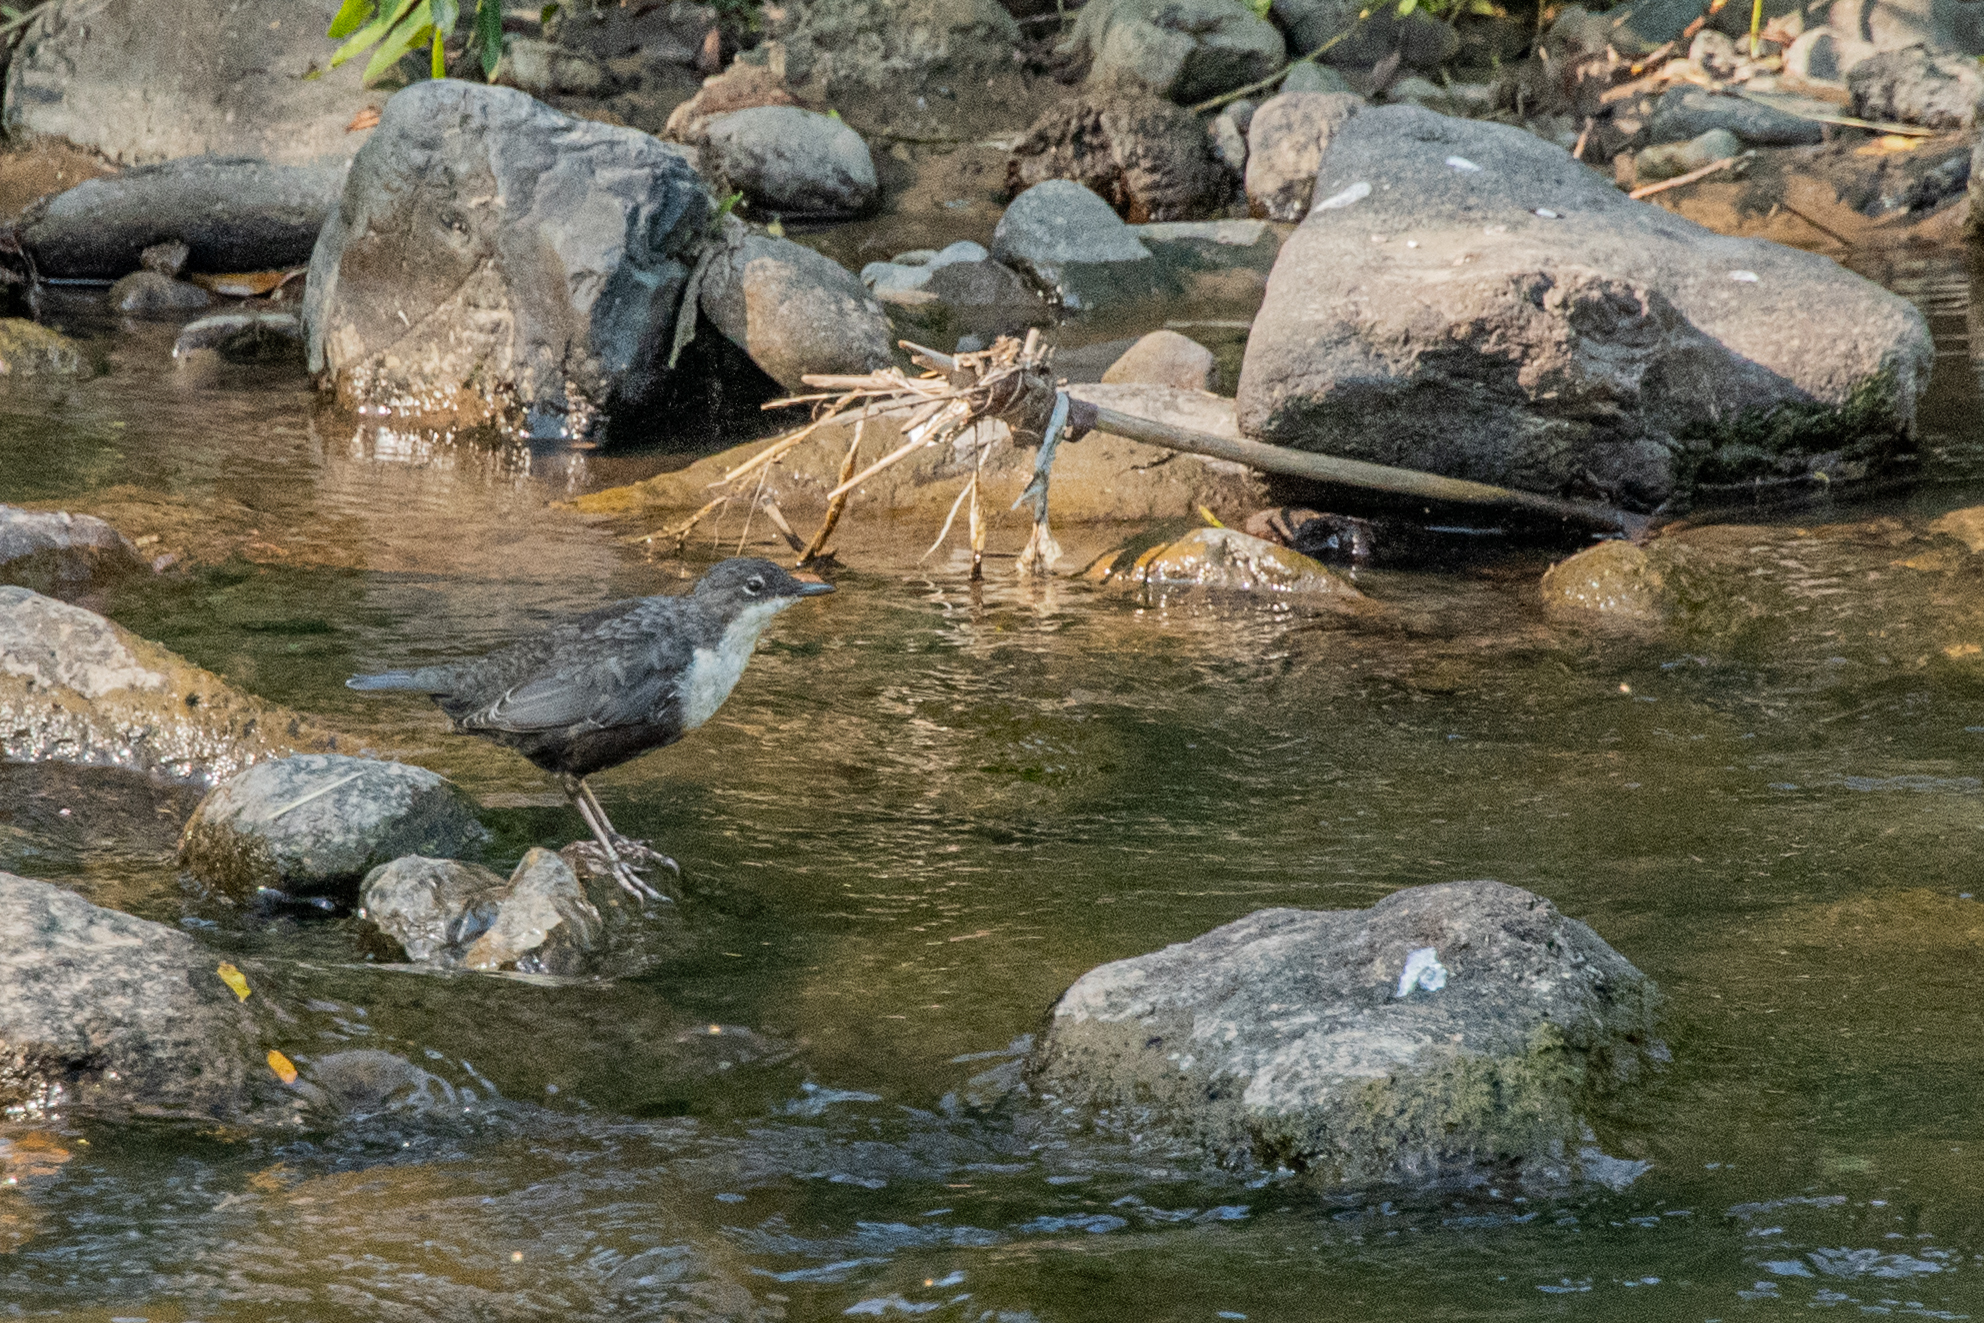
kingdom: Animalia
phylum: Chordata
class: Aves
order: Passeriformes
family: Cinclidae
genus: Cinclus
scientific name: Cinclus cinclus
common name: White-throated dipper
